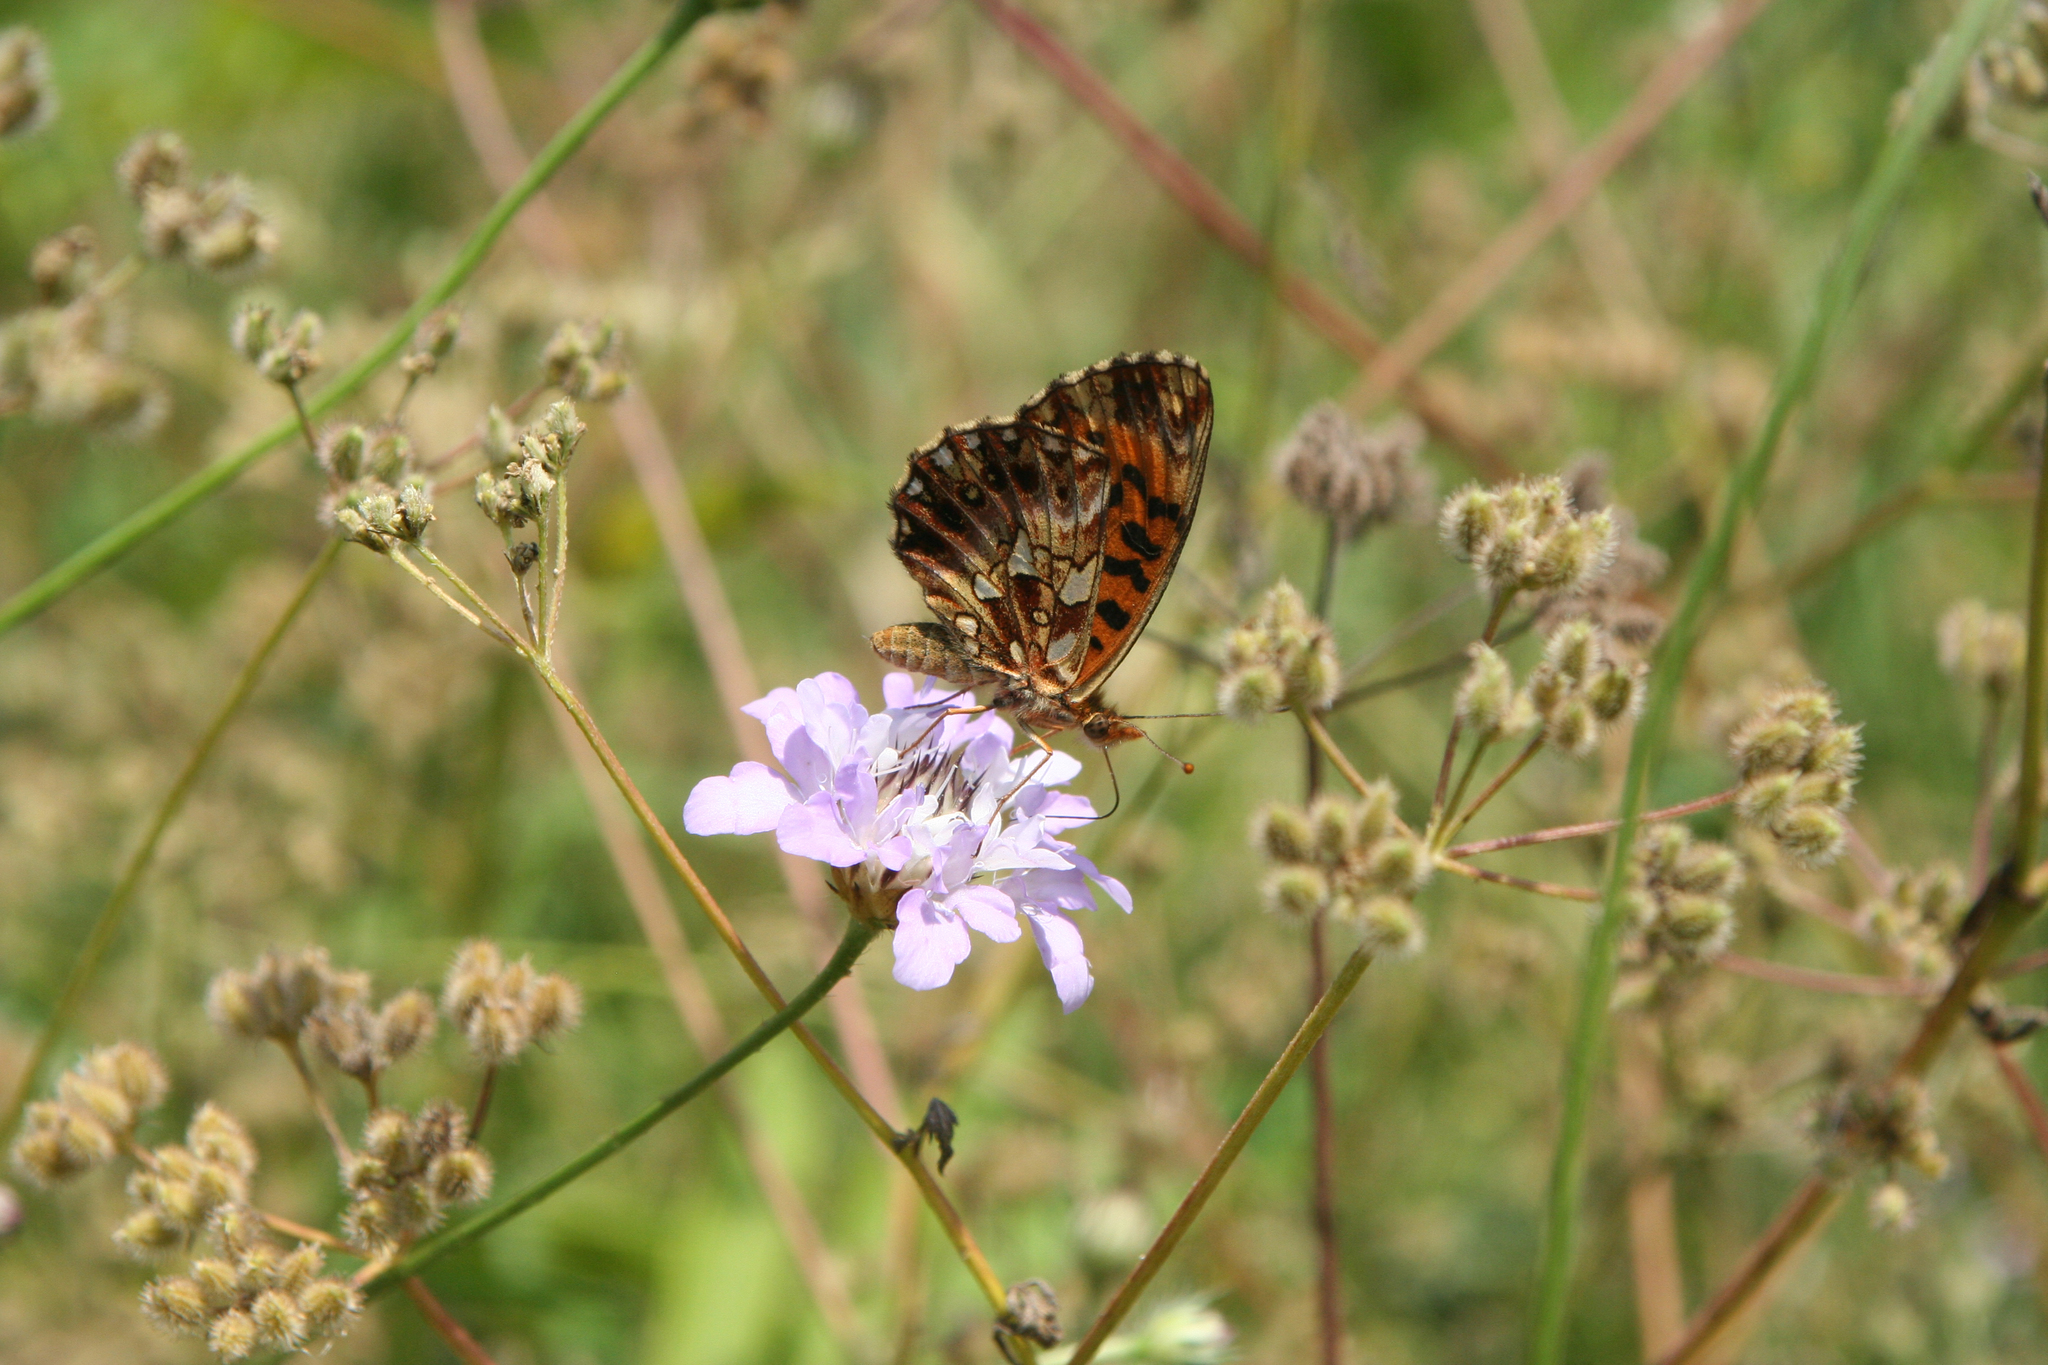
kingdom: Animalia
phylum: Arthropoda
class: Insecta
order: Lepidoptera
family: Nymphalidae
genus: Boloria
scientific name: Boloria dia
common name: Weaver's fritillary
